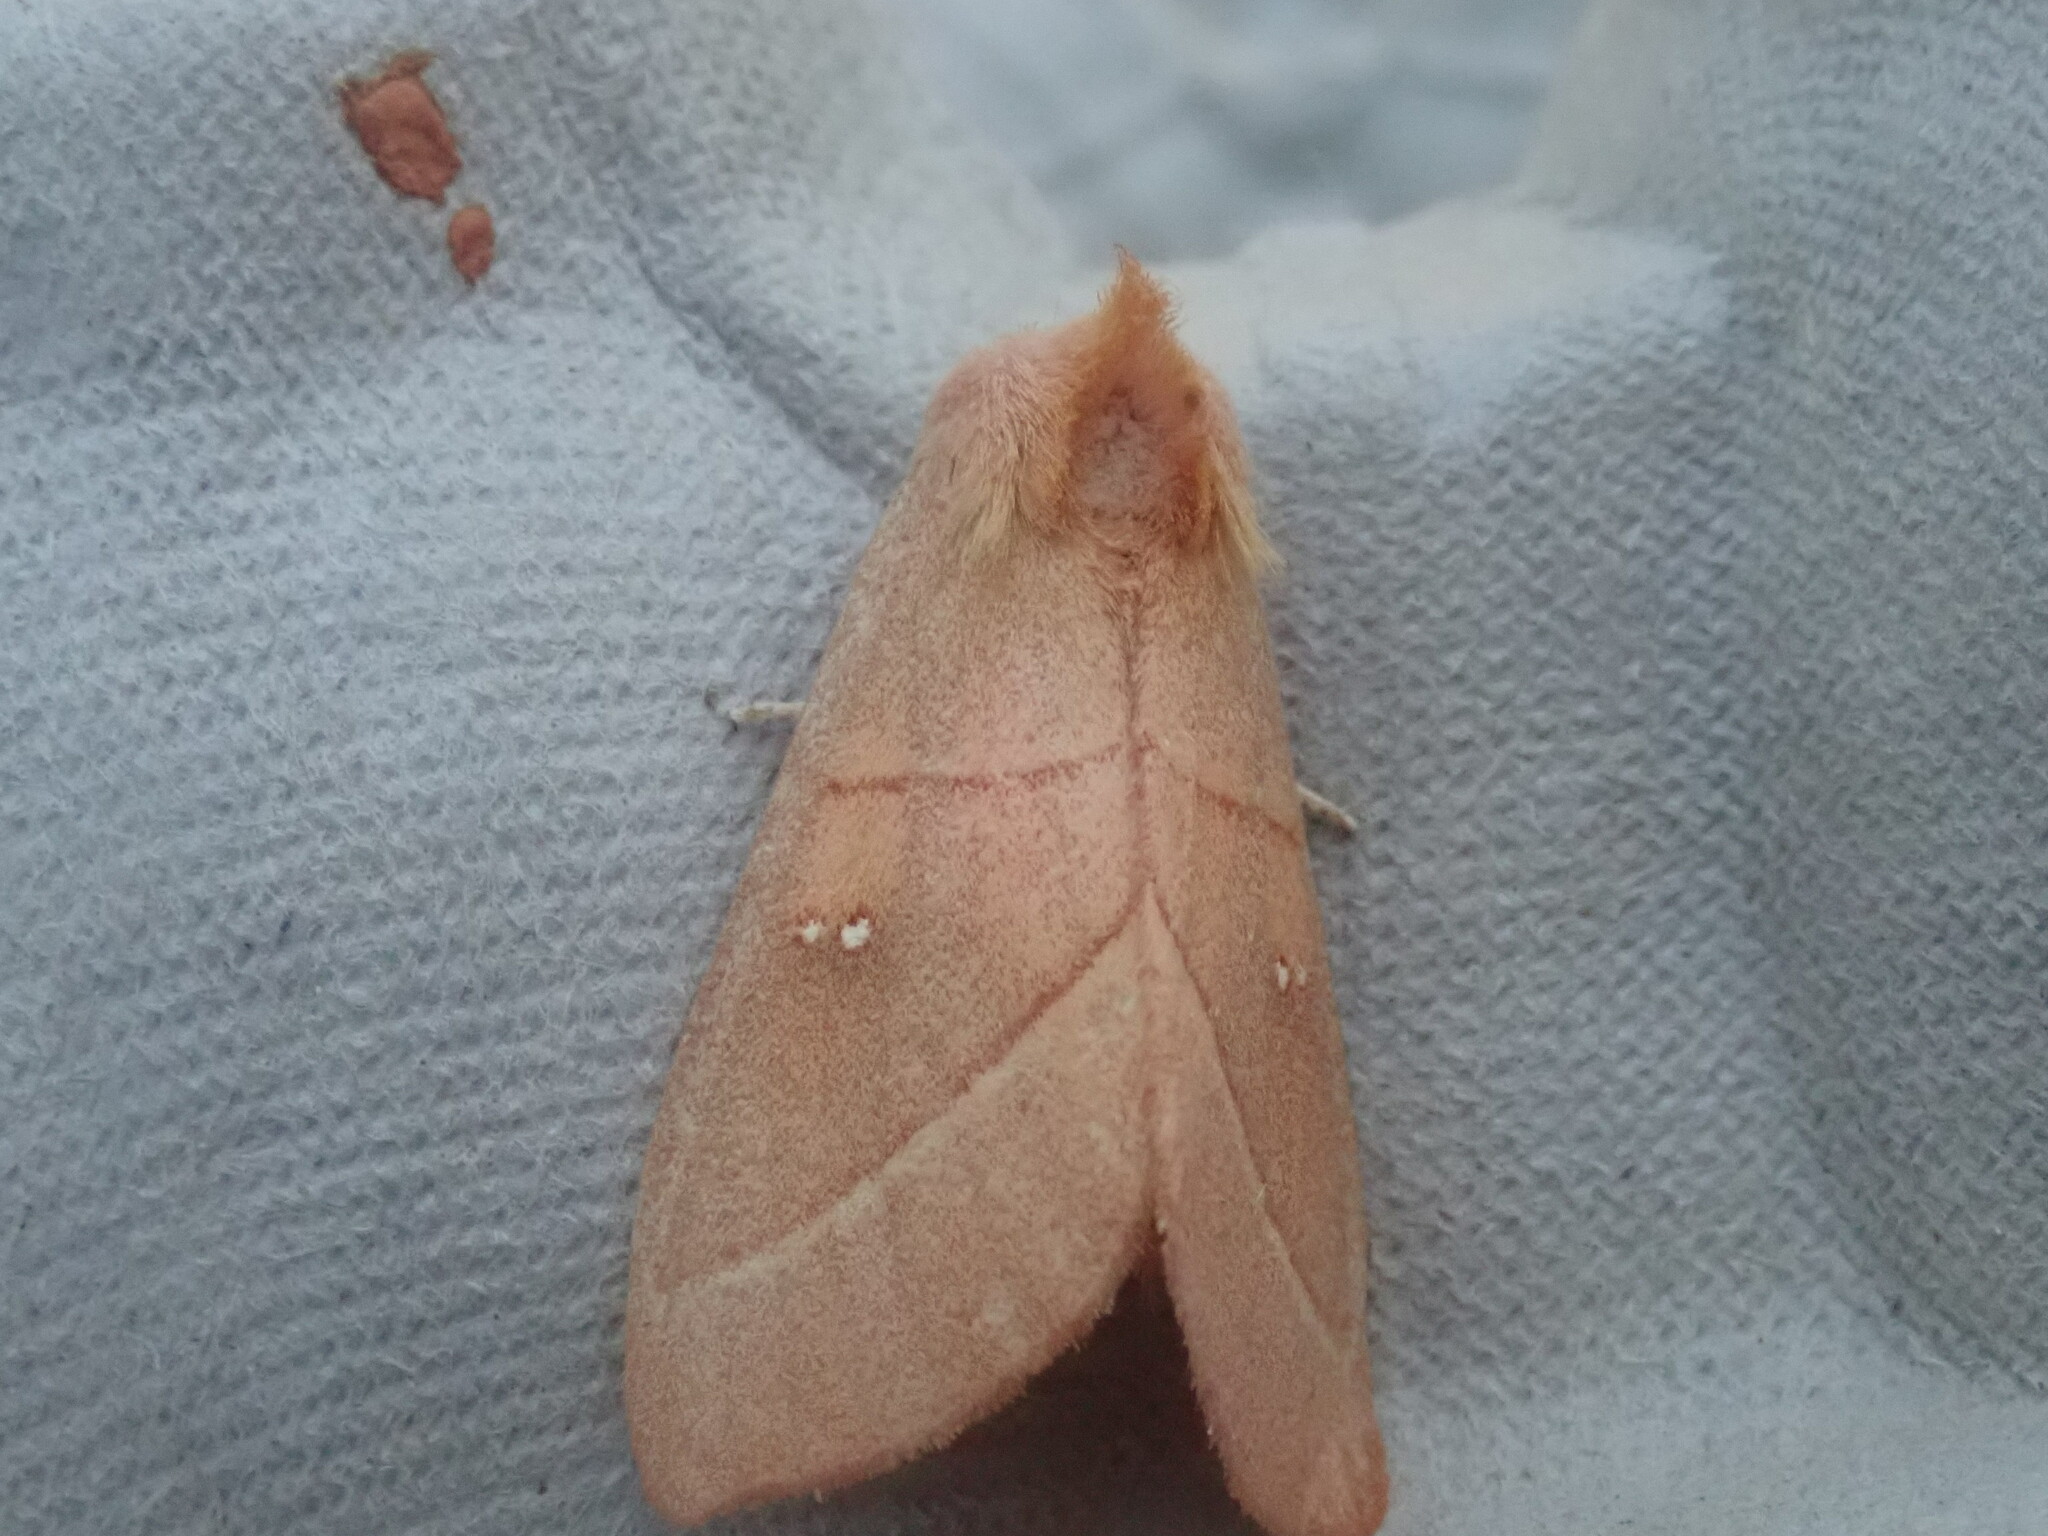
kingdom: Animalia
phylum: Arthropoda
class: Insecta
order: Lepidoptera
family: Notodontidae
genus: Nadata
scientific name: Nadata gibbosa
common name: White-dotted prominent
